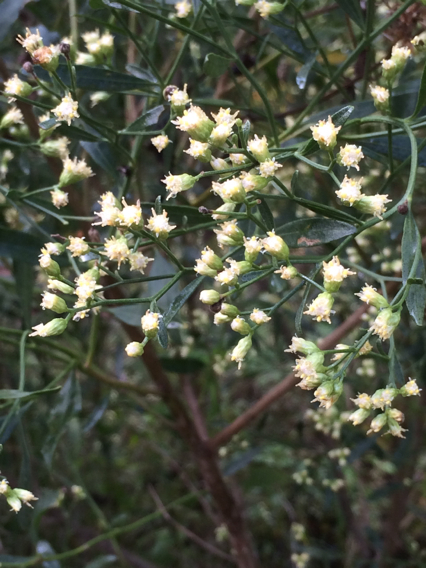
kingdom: Plantae
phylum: Tracheophyta
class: Magnoliopsida
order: Asterales
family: Asteraceae
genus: Baccharis
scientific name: Baccharis halimifolia
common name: Eastern baccharis
